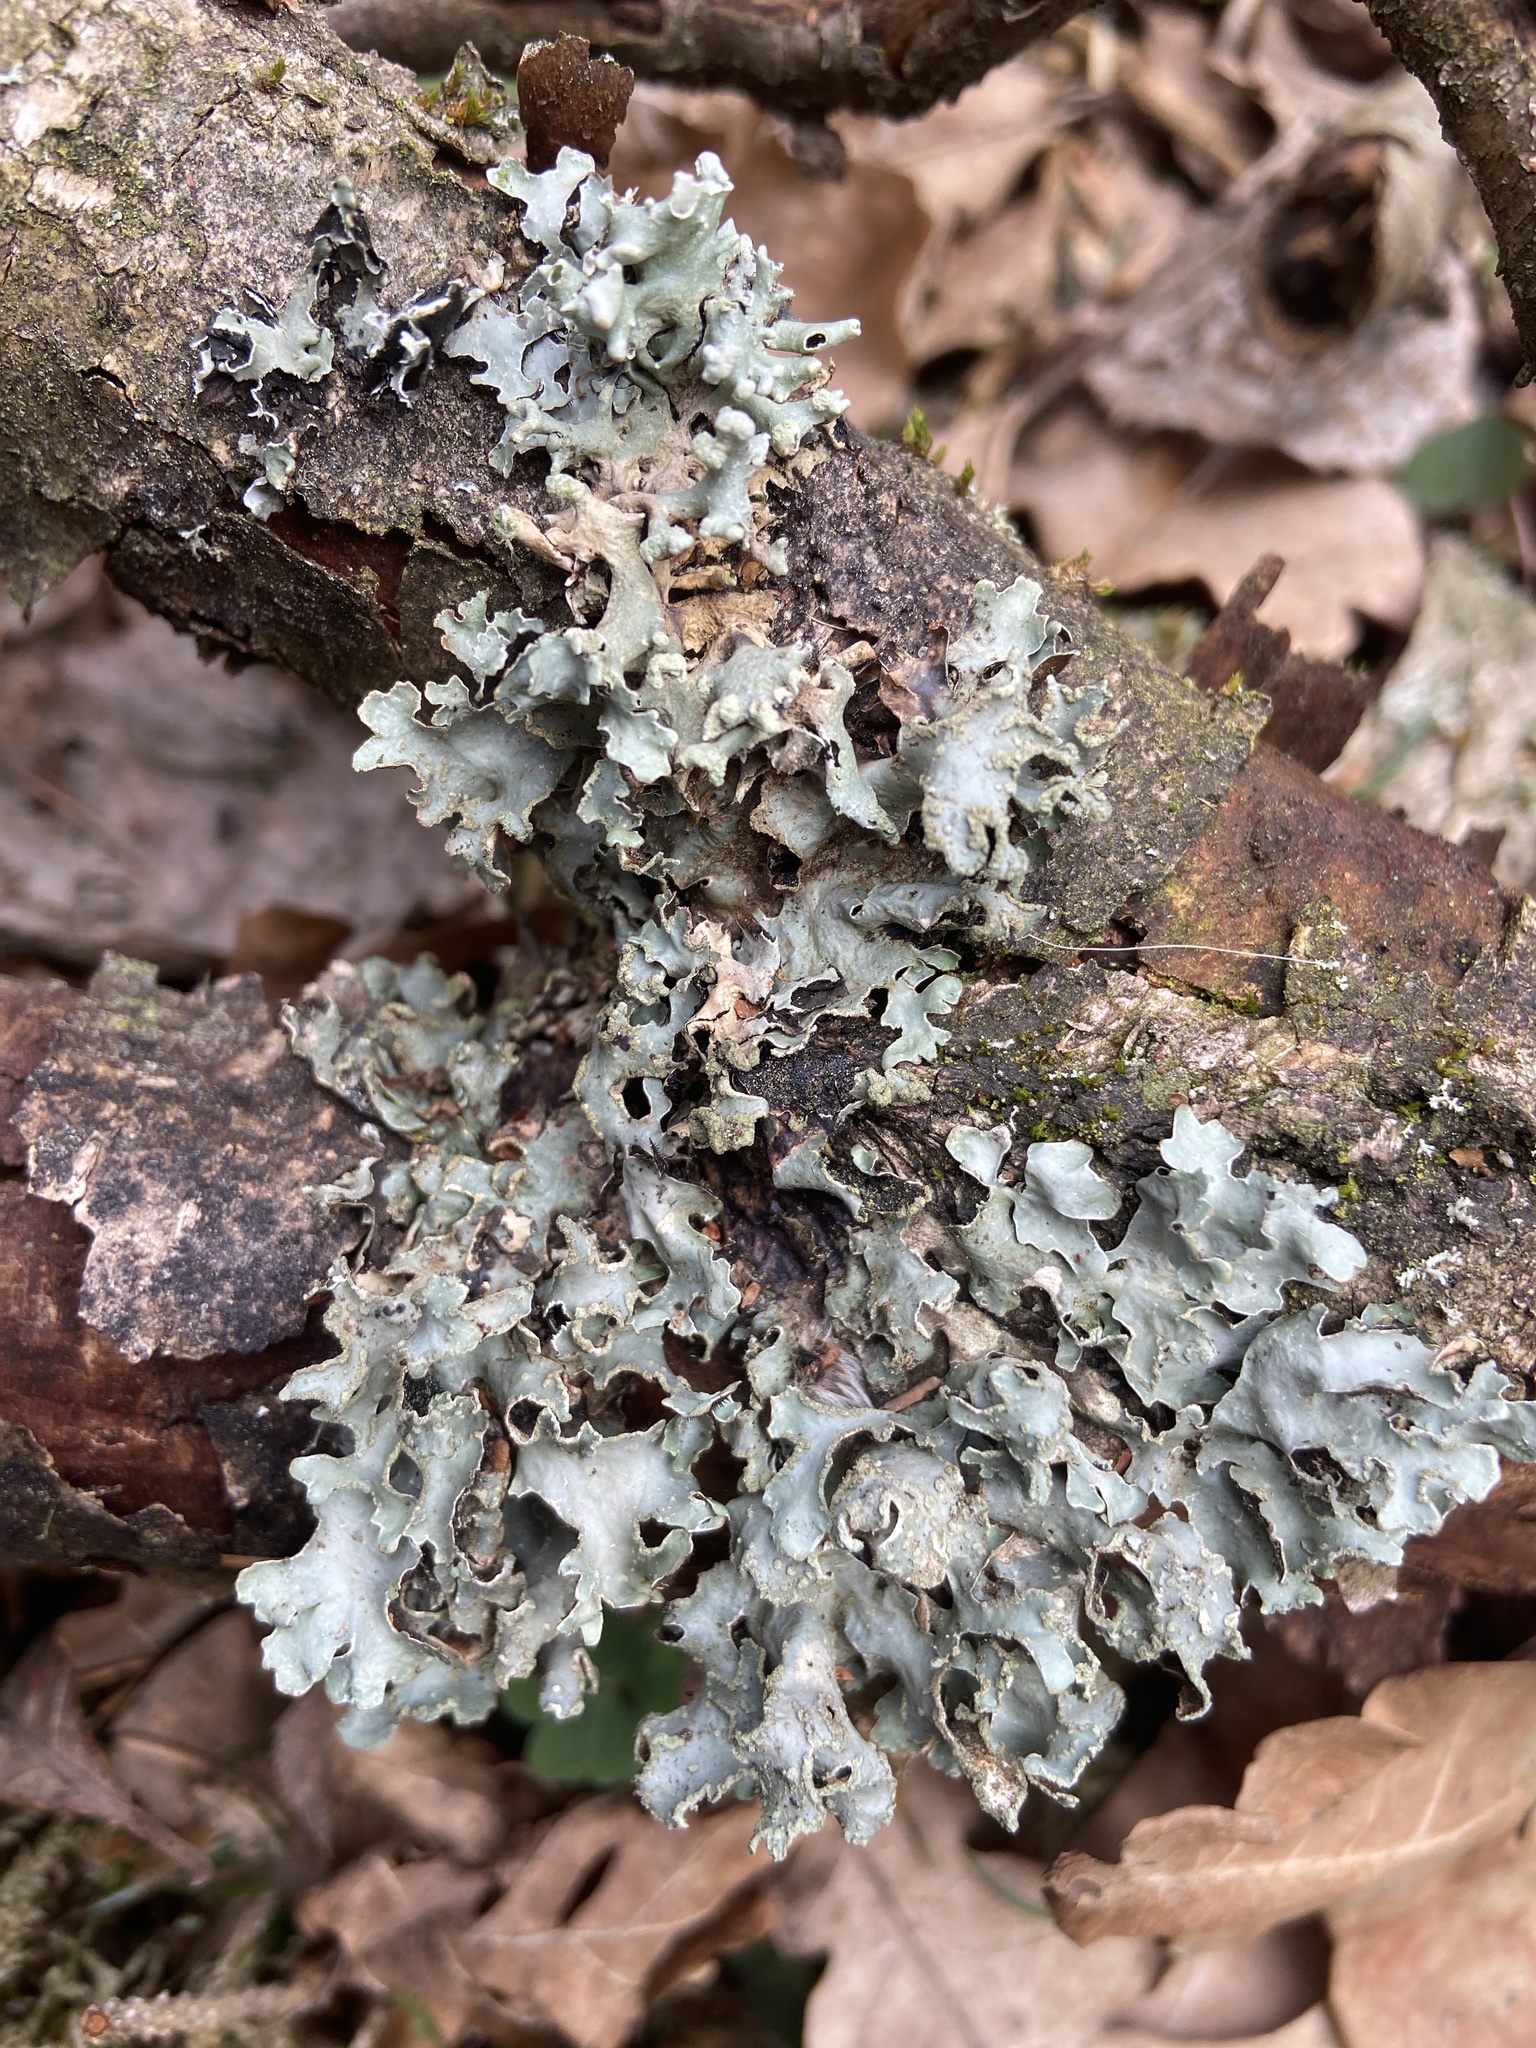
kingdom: Fungi
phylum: Ascomycota
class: Lecanoromycetes
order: Lecanorales
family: Parmeliaceae
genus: Parmelia
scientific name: Parmelia sulcata
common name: Netted shield lichen
